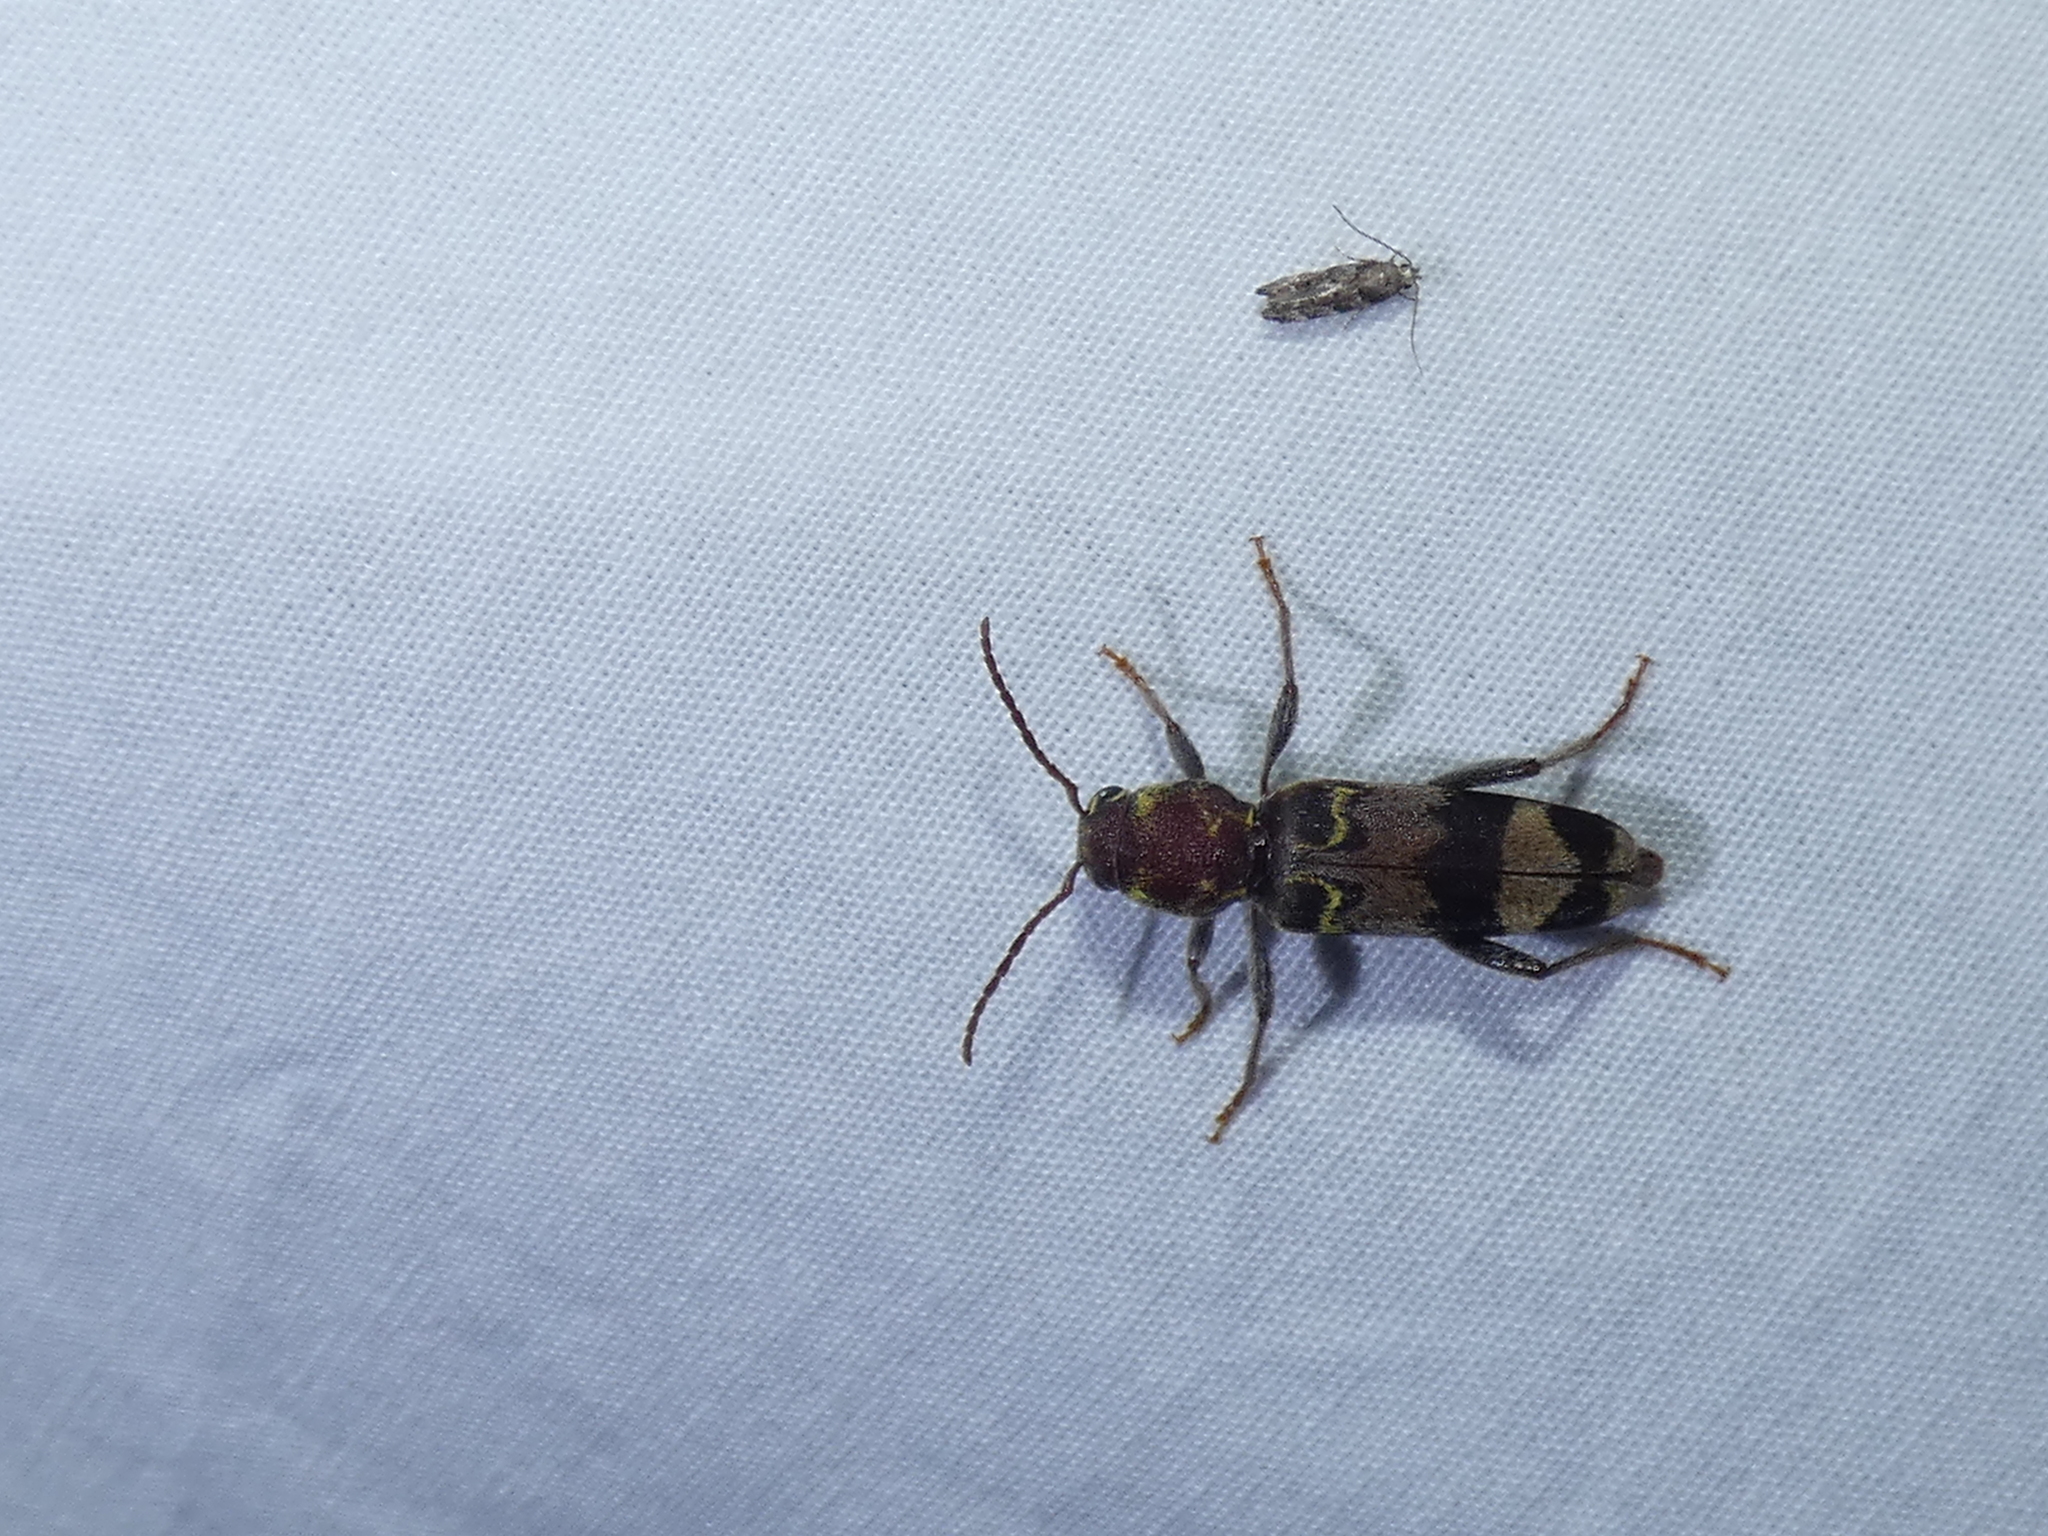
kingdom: Animalia
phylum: Arthropoda
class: Insecta
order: Coleoptera
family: Cerambycidae
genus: Xylotrechus
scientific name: Xylotrechus colonus
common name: Long-horned beetle
